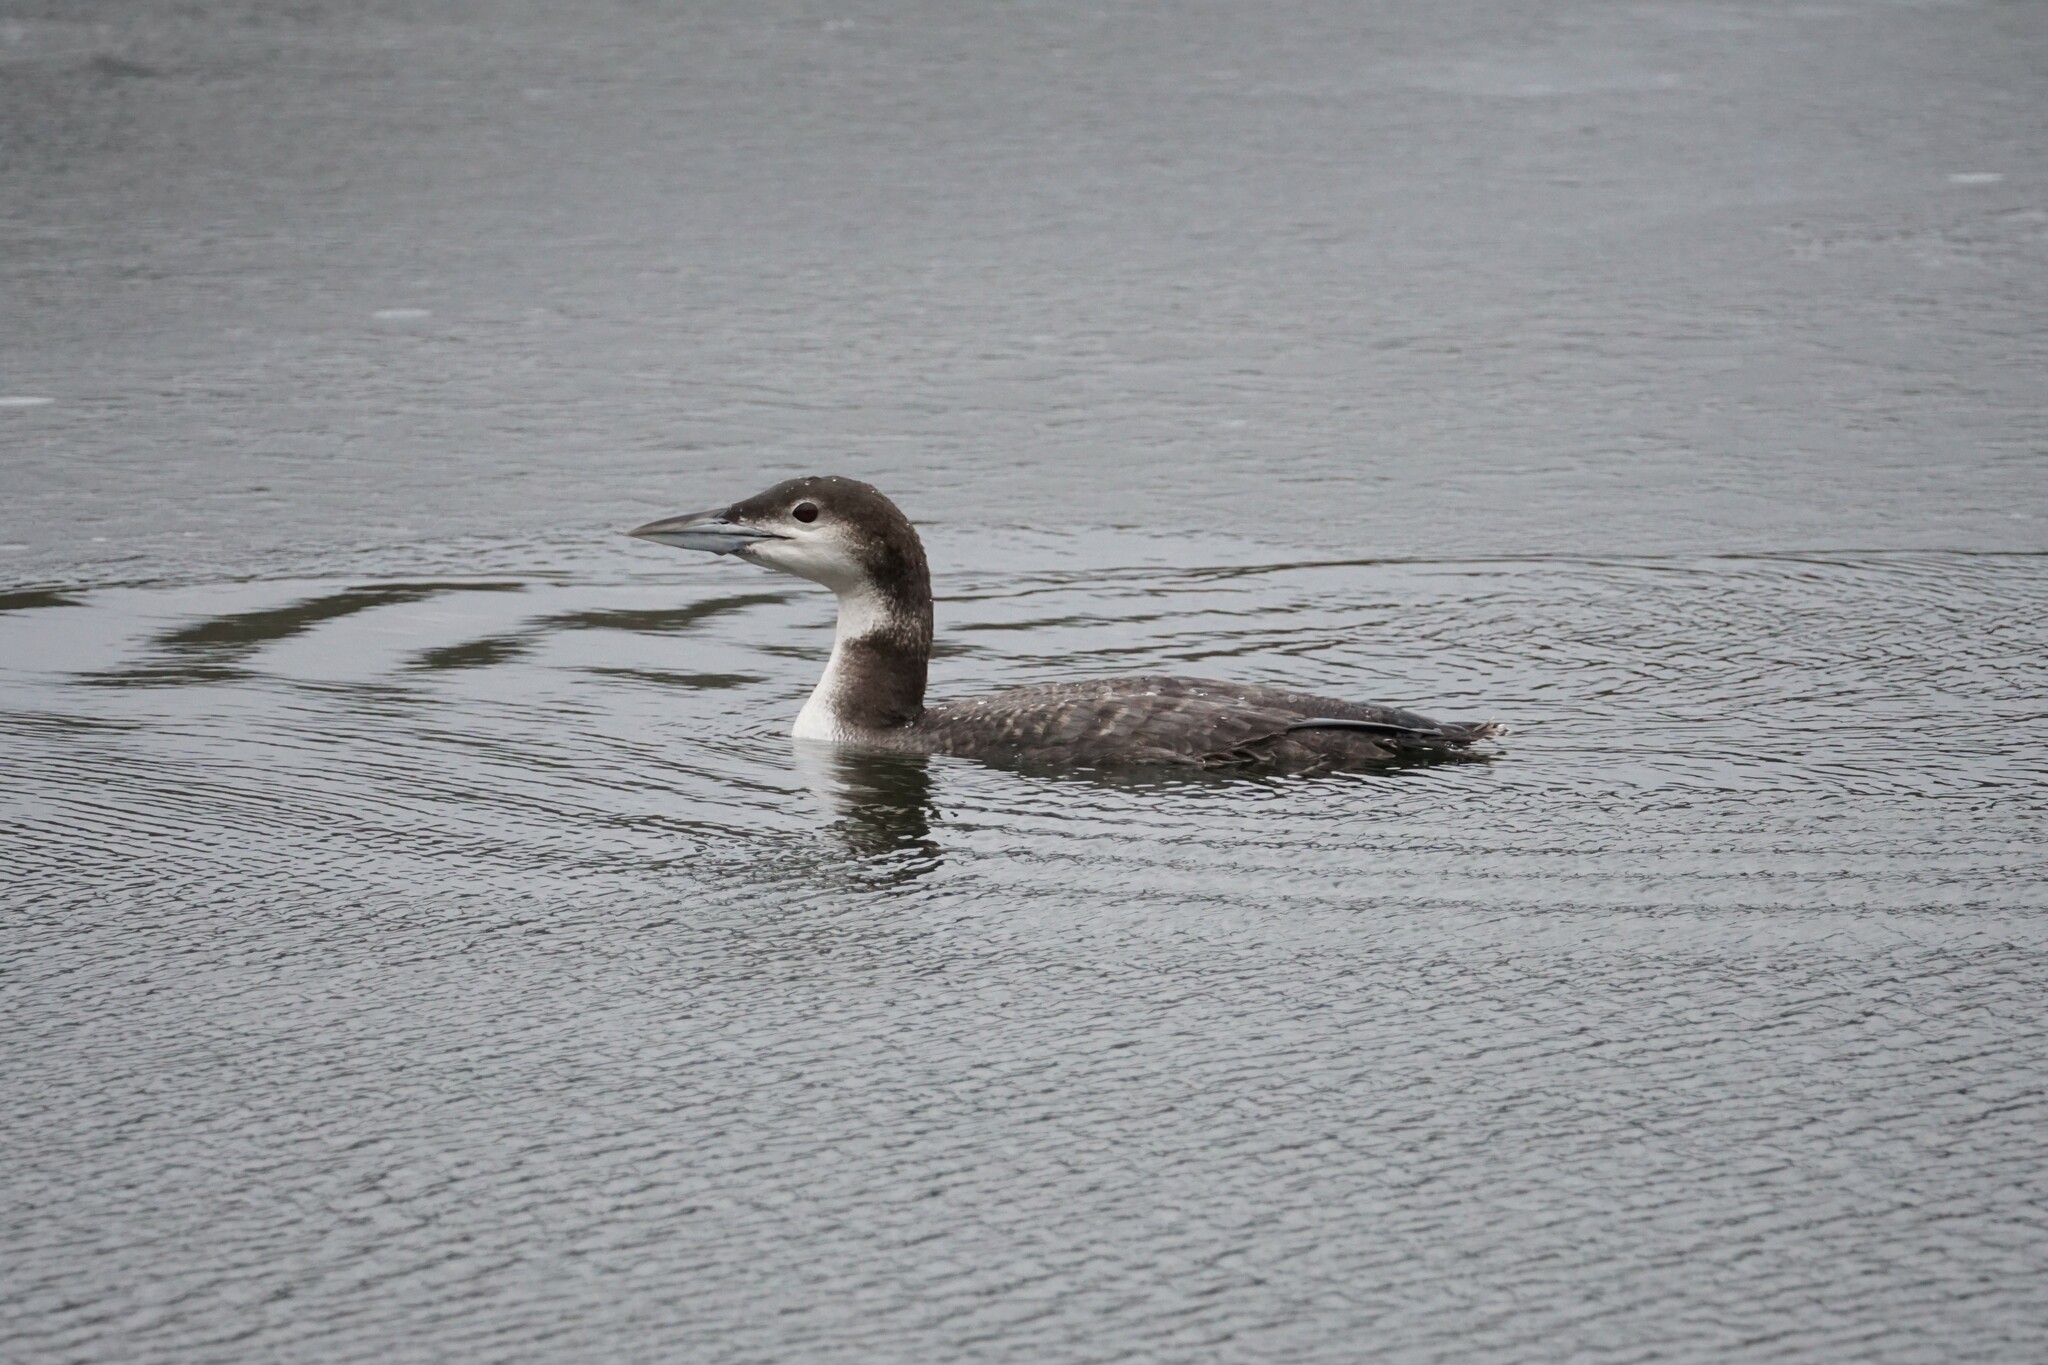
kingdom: Animalia
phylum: Chordata
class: Aves
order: Gaviiformes
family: Gaviidae
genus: Gavia
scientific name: Gavia immer
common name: Common loon
